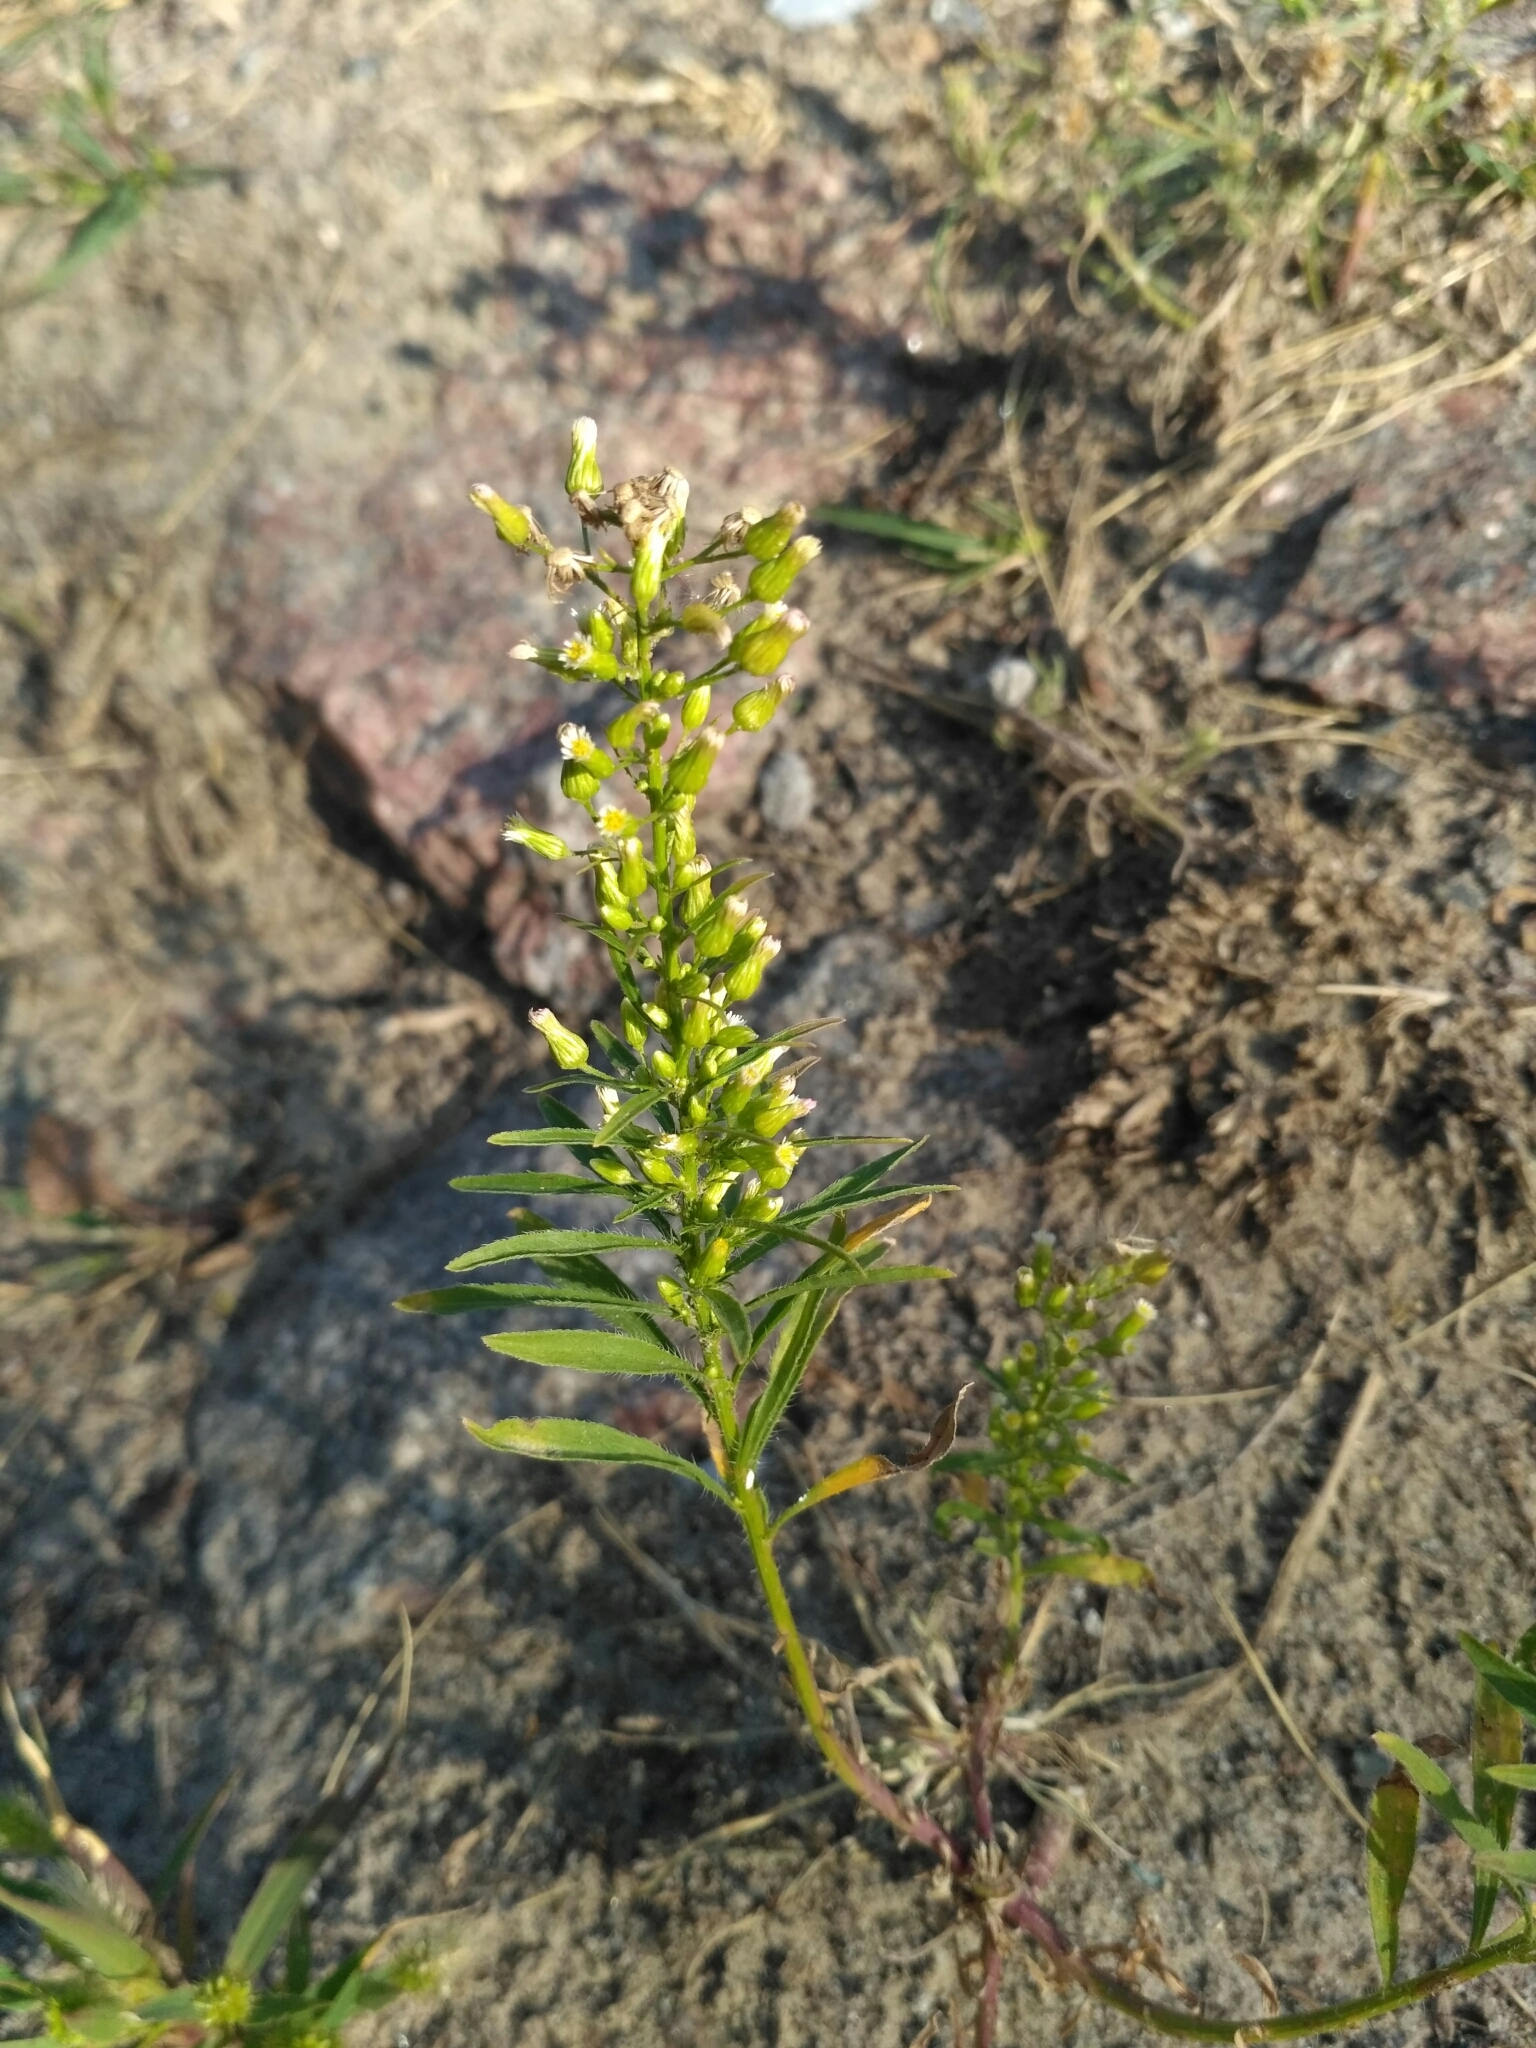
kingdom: Plantae
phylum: Tracheophyta
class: Magnoliopsida
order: Asterales
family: Asteraceae
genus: Erigeron
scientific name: Erigeron canadensis
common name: Canadian fleabane
